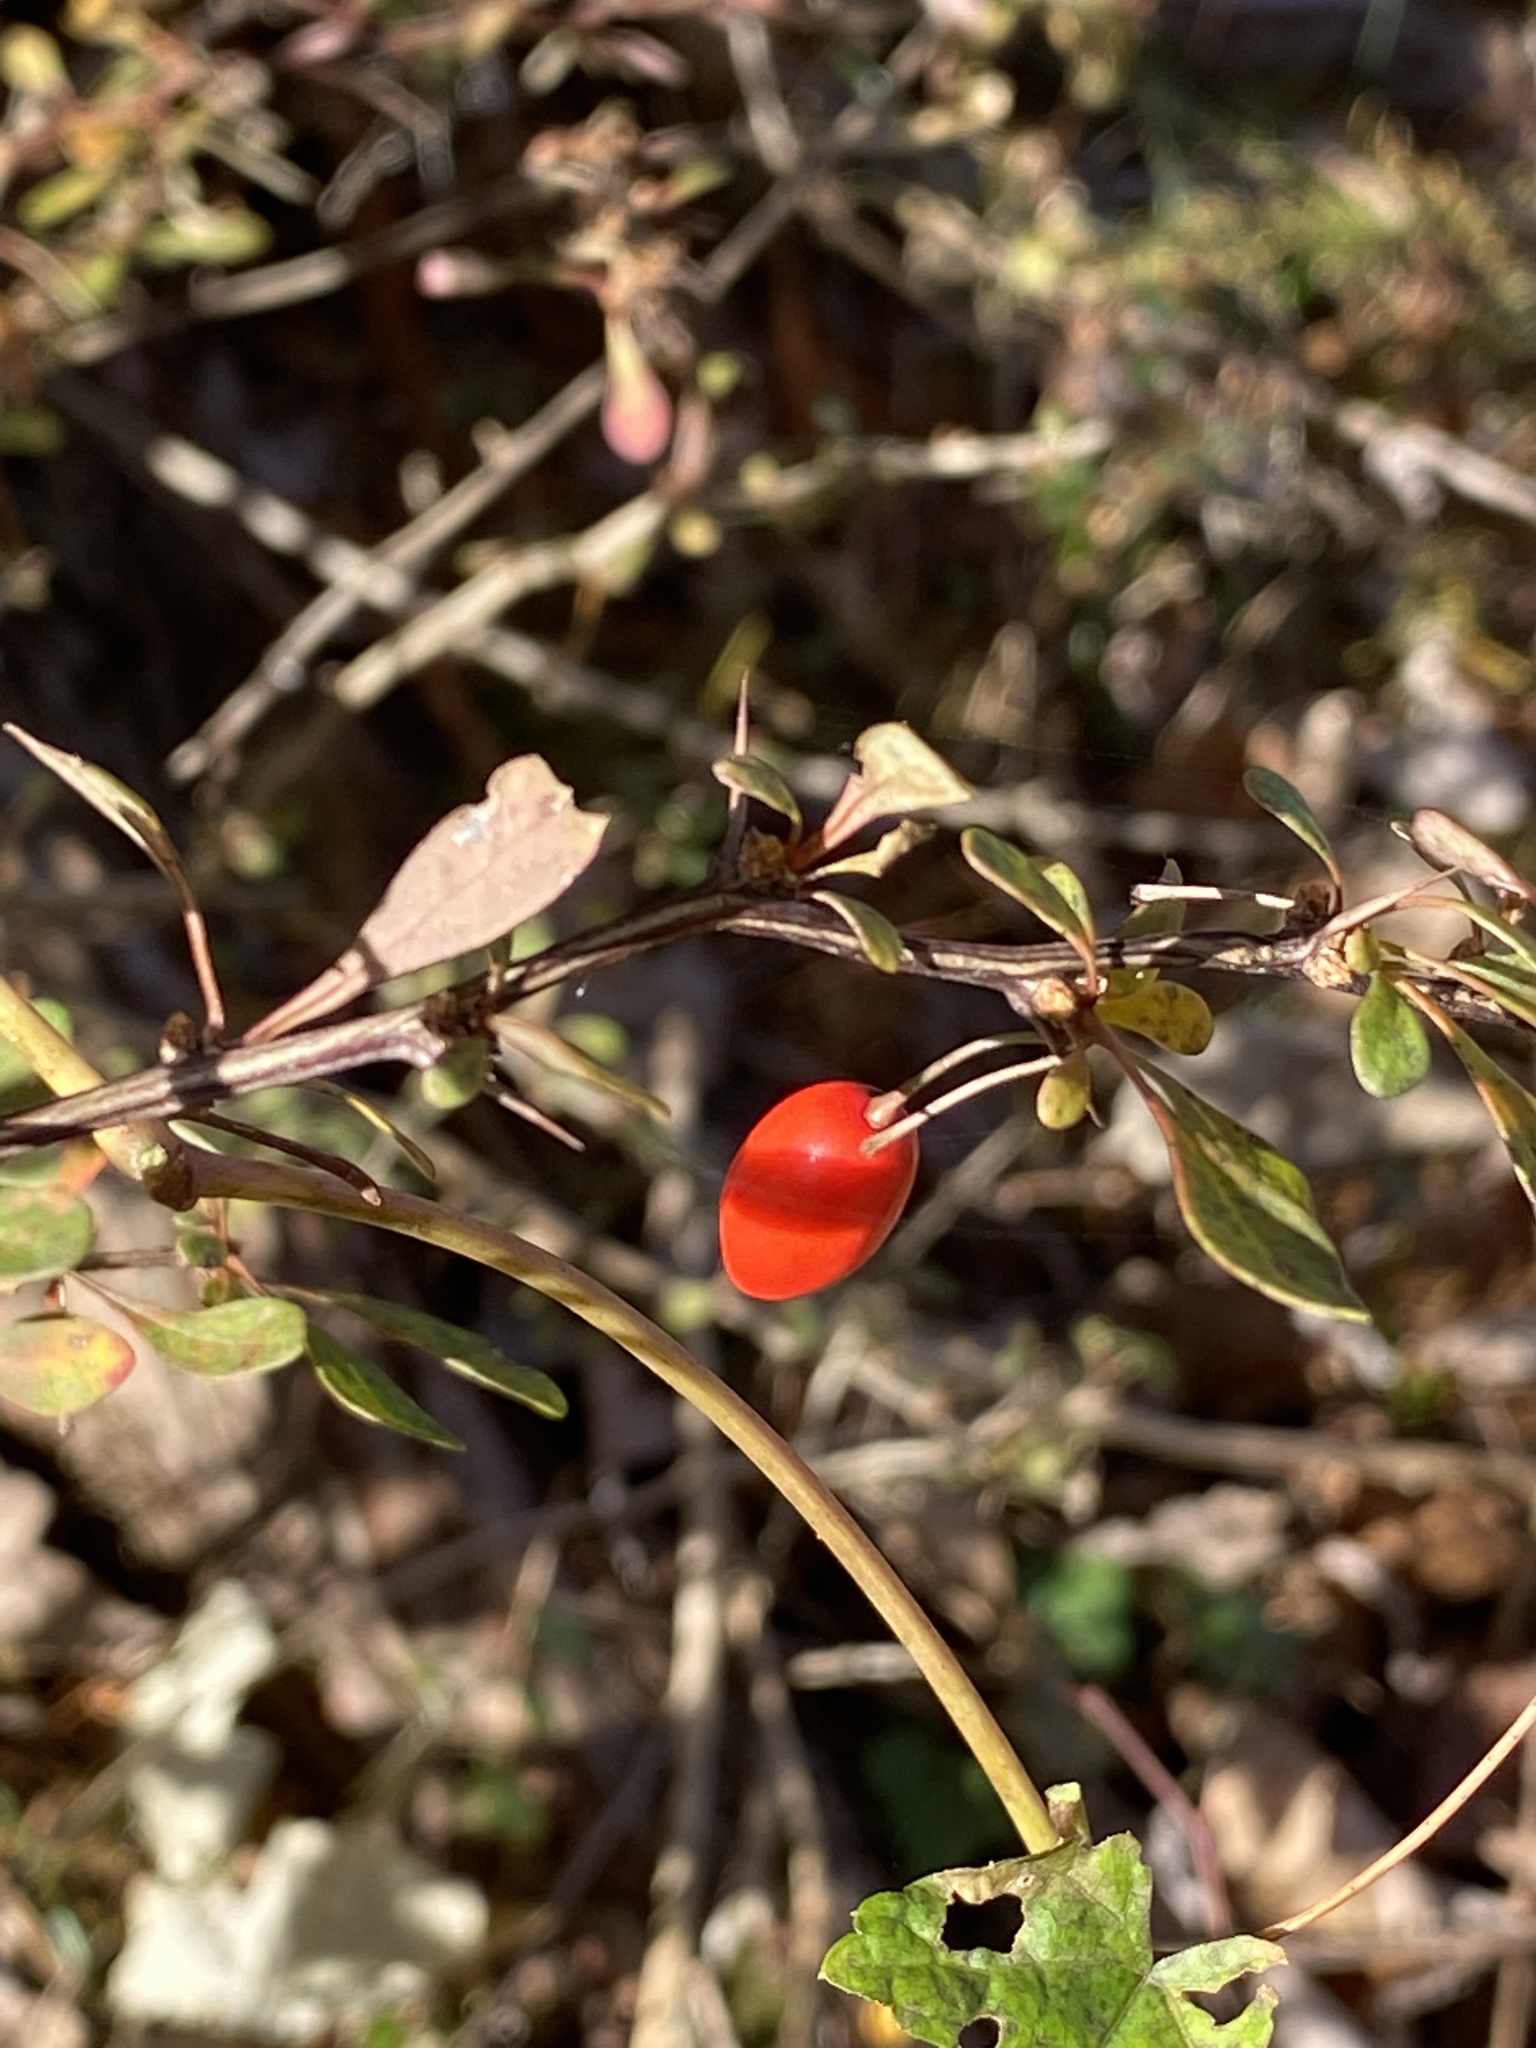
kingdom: Plantae
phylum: Tracheophyta
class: Magnoliopsida
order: Ranunculales
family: Berberidaceae
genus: Berberis
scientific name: Berberis thunbergii
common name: Japanese barberry
